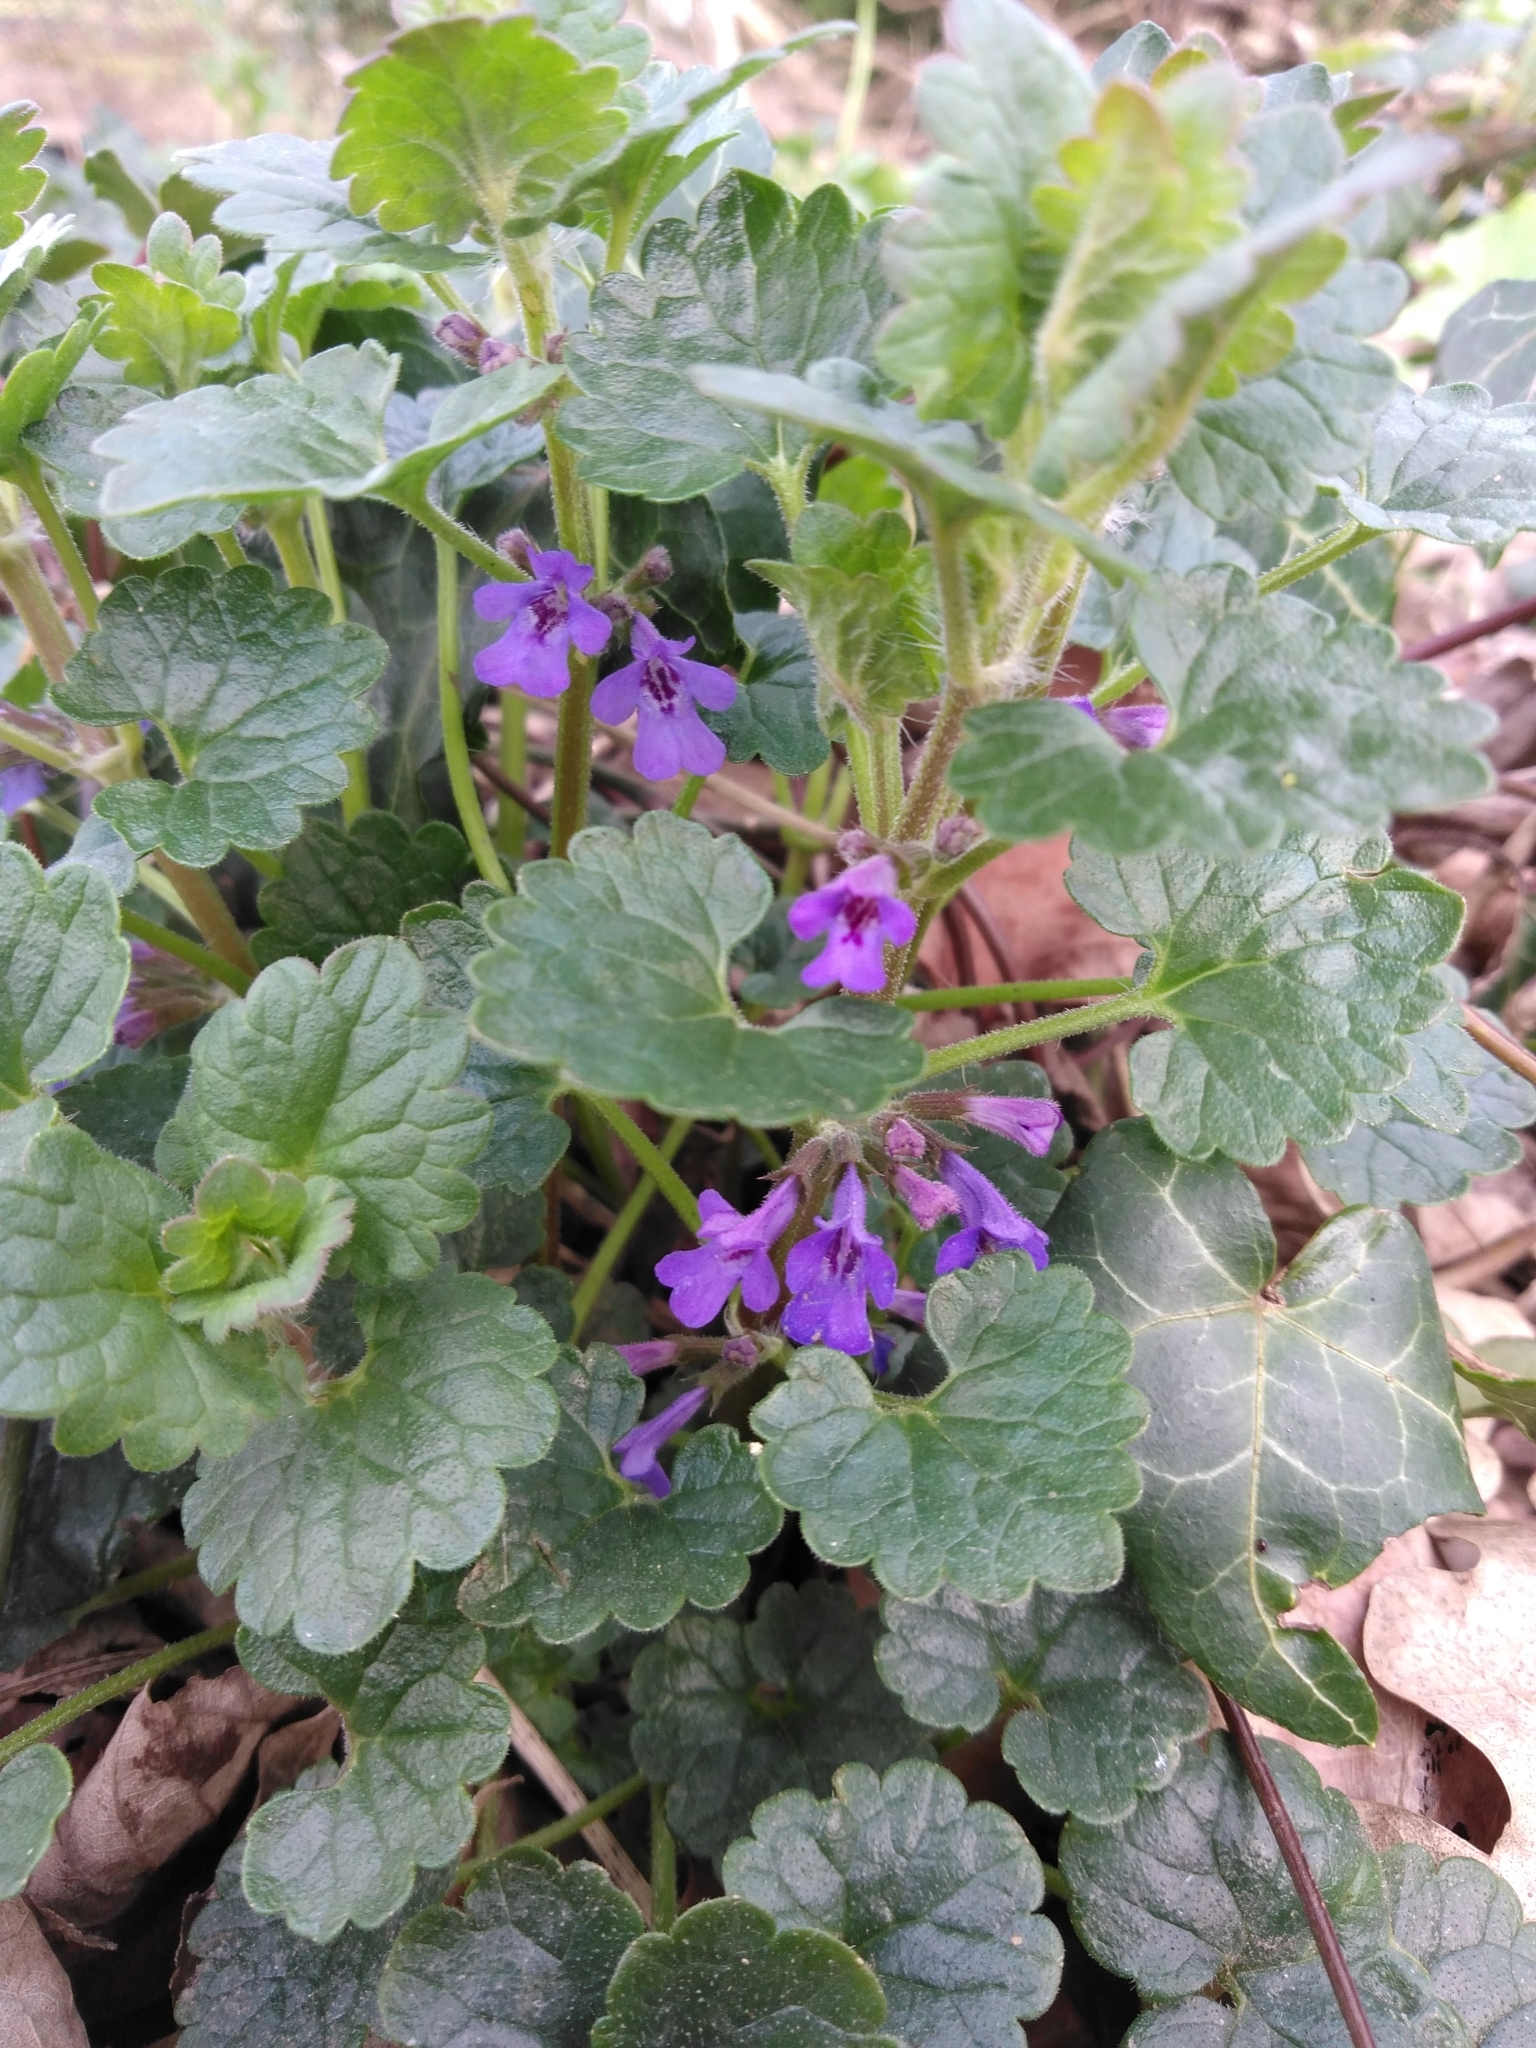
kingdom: Plantae
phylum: Tracheophyta
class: Magnoliopsida
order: Lamiales
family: Lamiaceae
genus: Glechoma
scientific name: Glechoma hederacea
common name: Ground ivy
